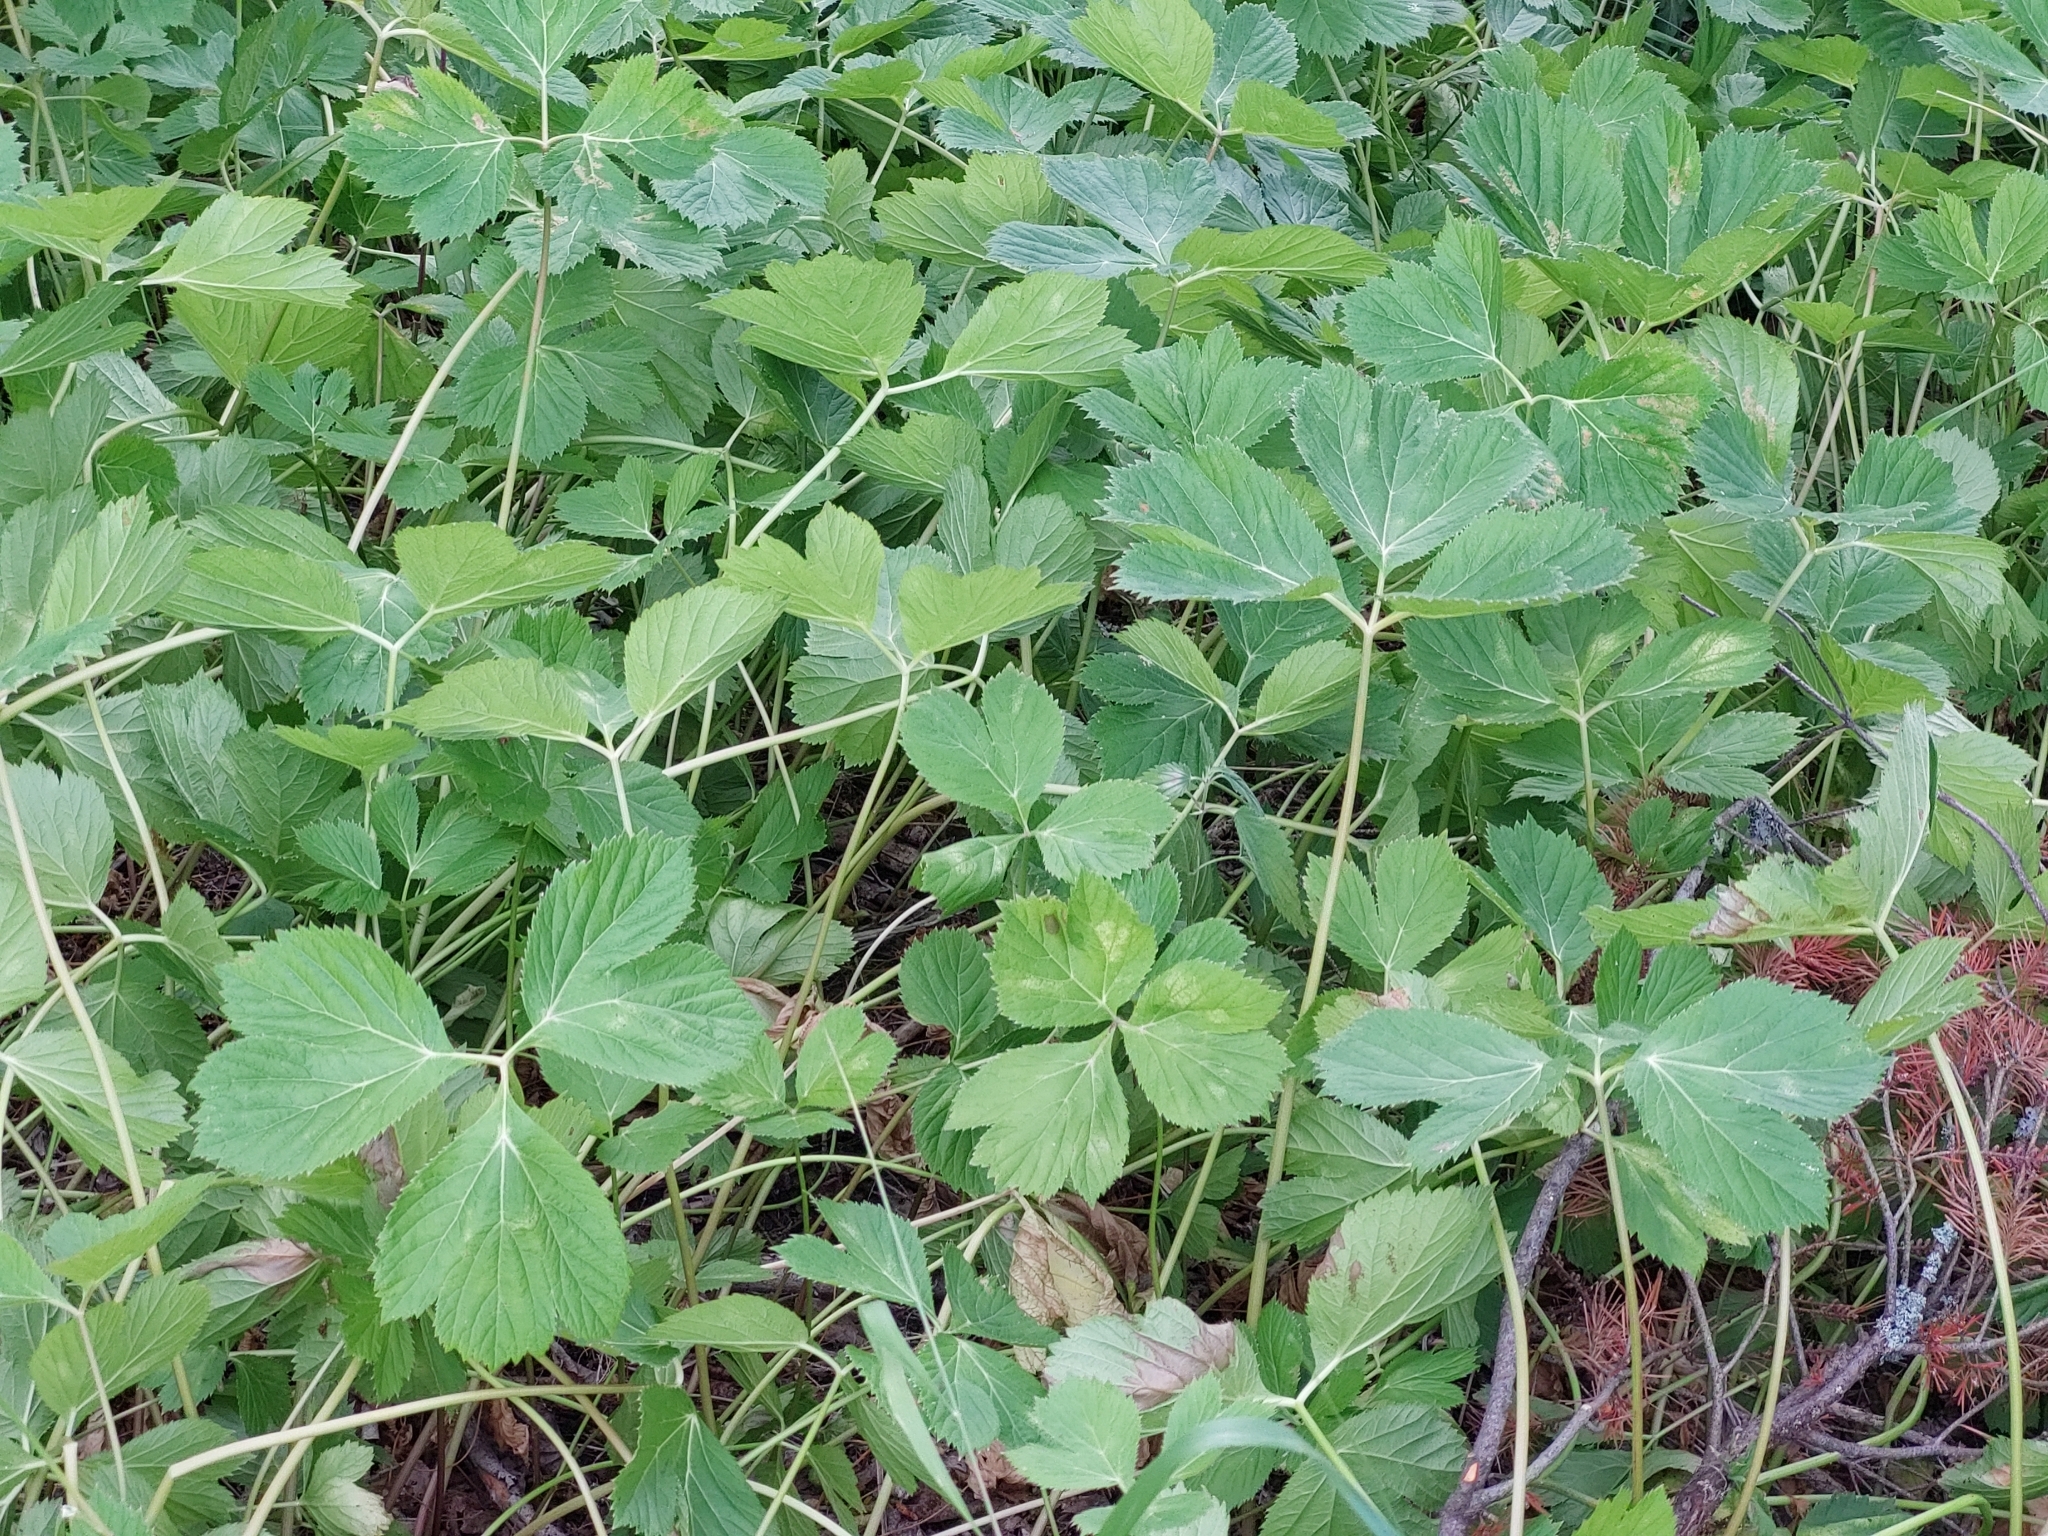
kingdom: Plantae
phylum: Tracheophyta
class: Magnoliopsida
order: Apiales
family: Apiaceae
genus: Imperatoria
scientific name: Imperatoria ostruthium
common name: Masterwort
